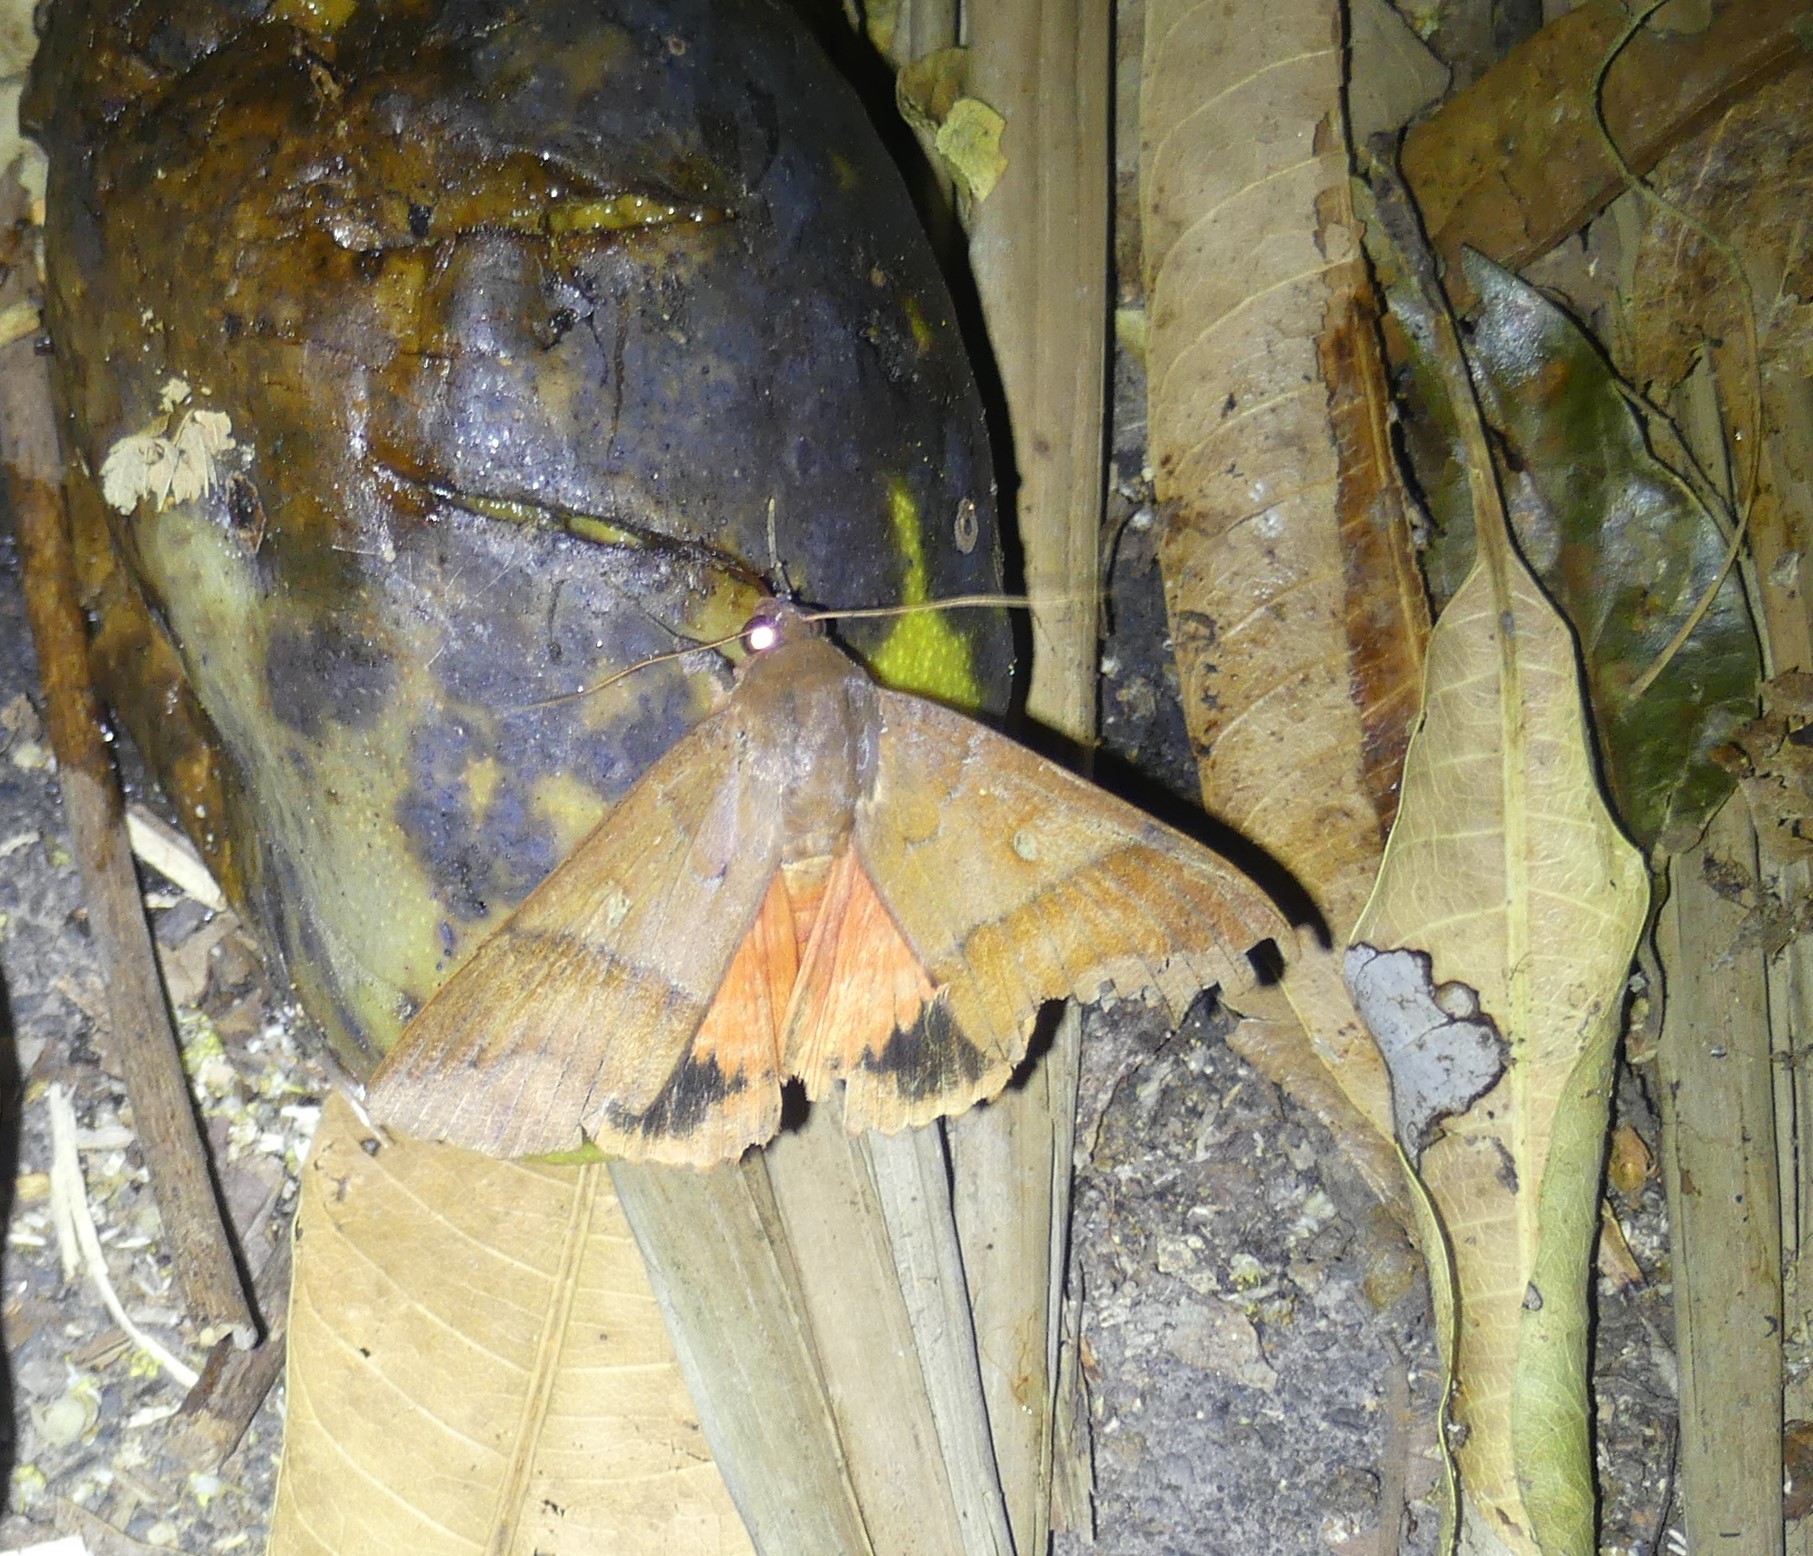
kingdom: Animalia
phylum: Arthropoda
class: Insecta
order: Lepidoptera
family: Erebidae
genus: Thyas
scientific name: Thyas coronata
